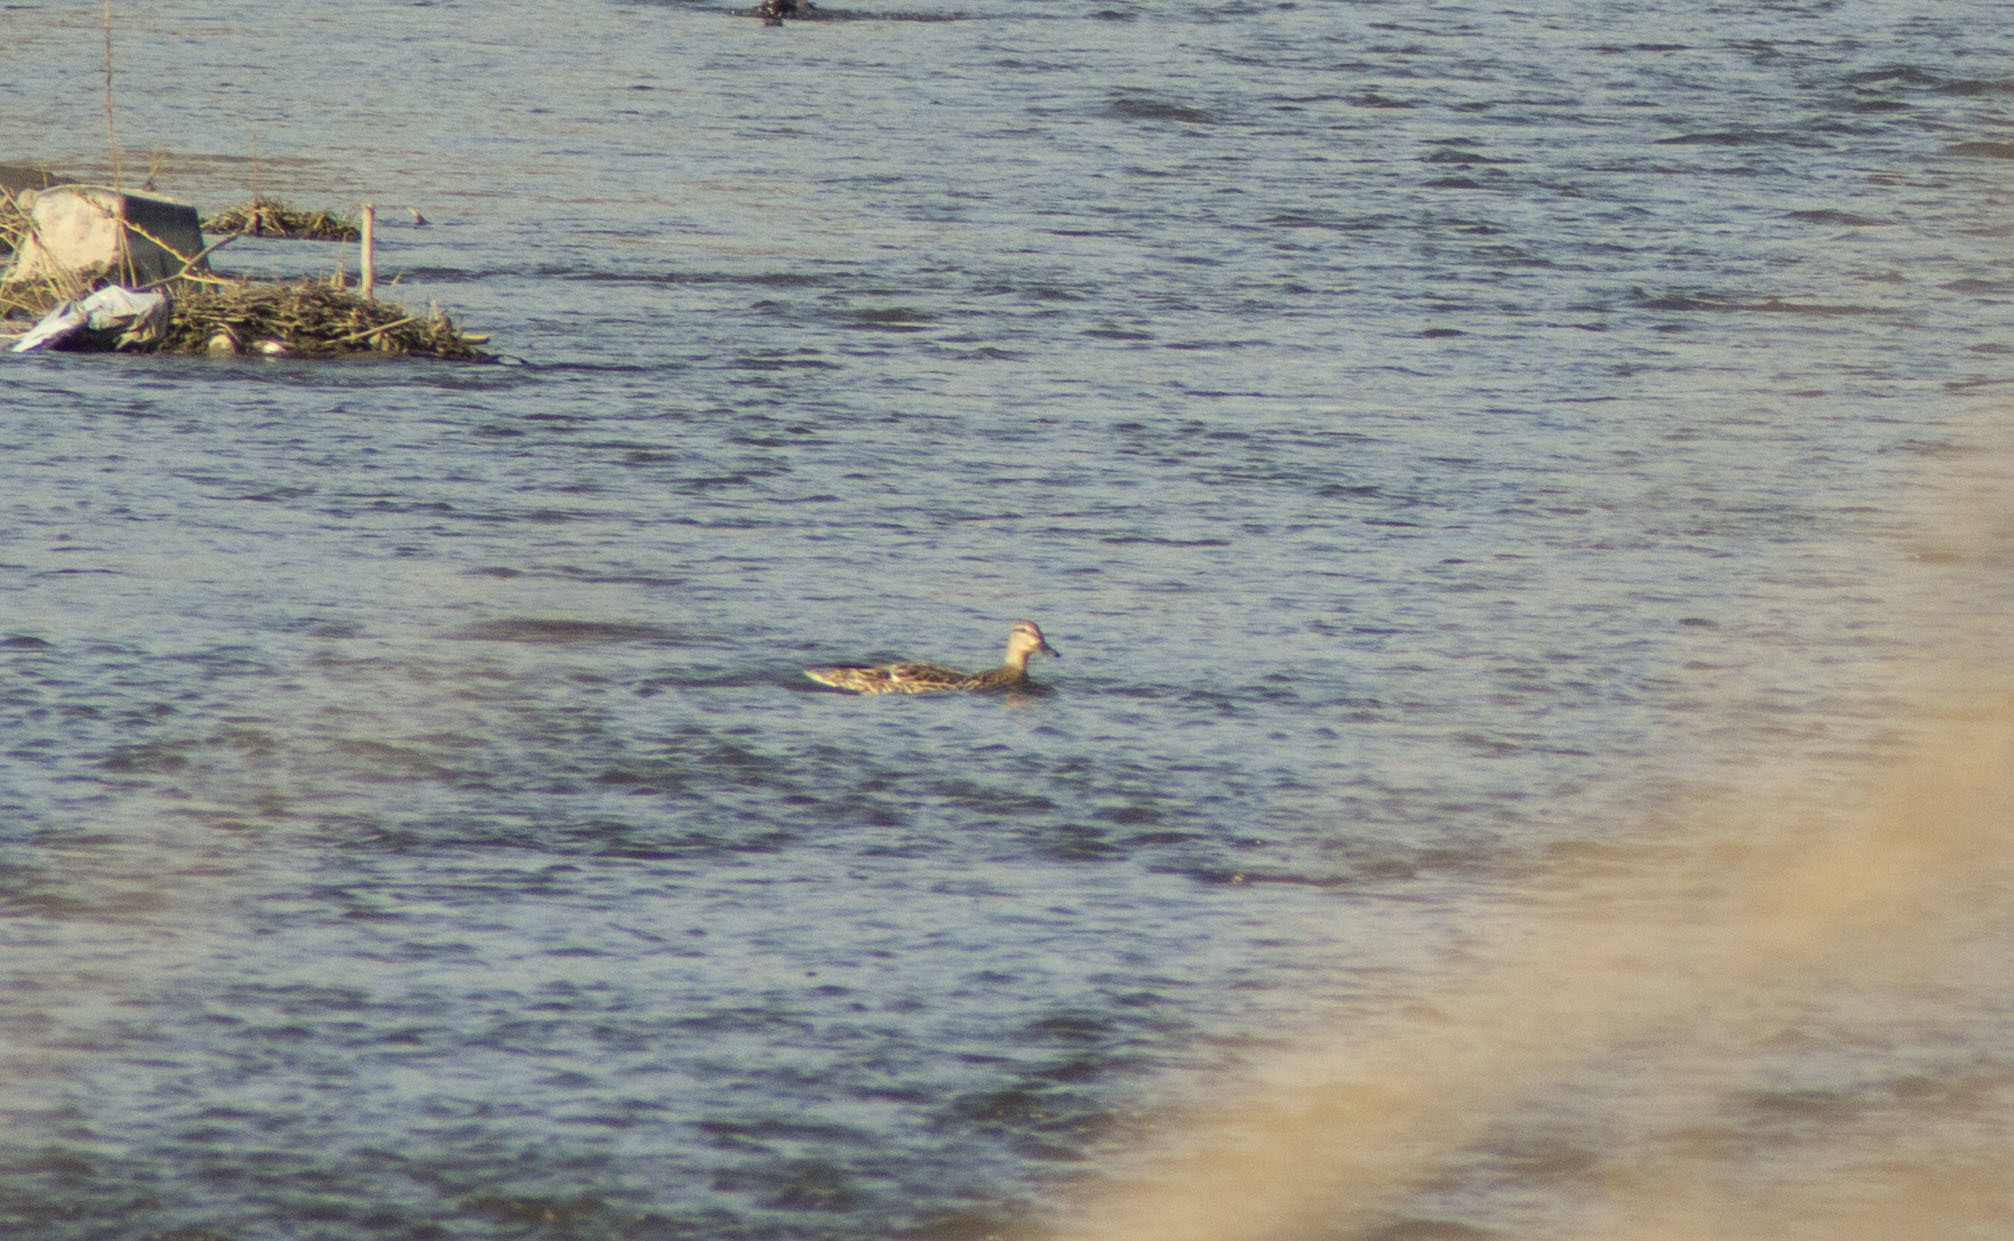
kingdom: Animalia
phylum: Chordata
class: Aves
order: Anseriformes
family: Anatidae
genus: Anas
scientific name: Anas platyrhynchos
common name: Mallard
